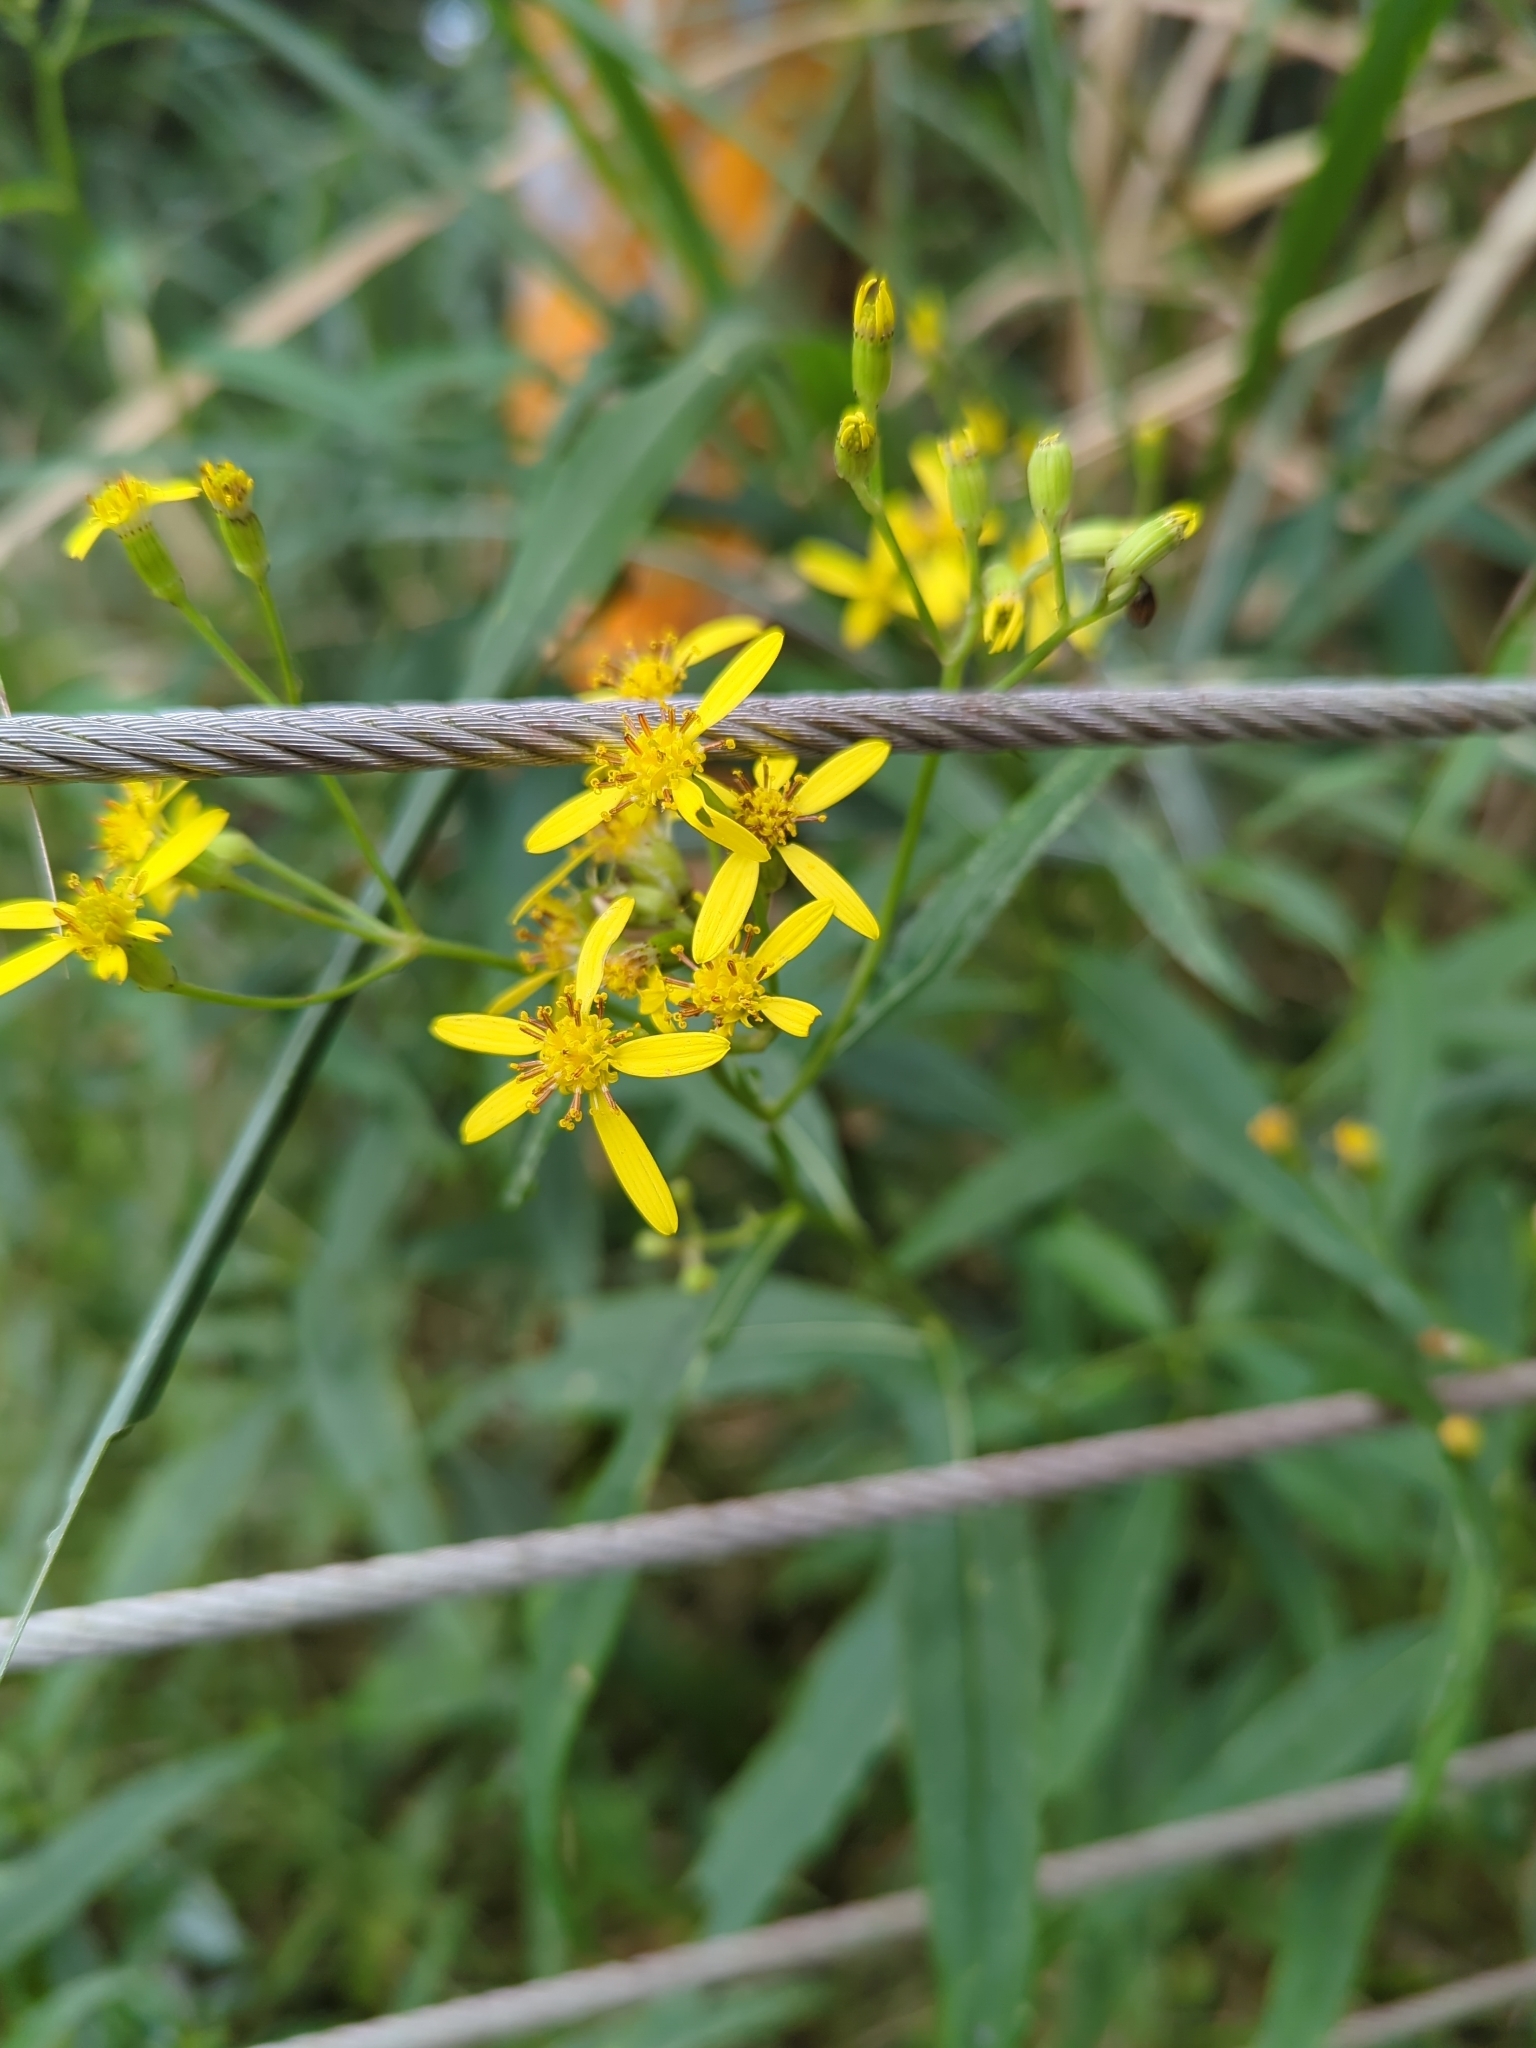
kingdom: Plantae
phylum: Tracheophyta
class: Magnoliopsida
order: Asterales
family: Asteraceae
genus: Jacobaea
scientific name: Jacobaea morrisonensis
